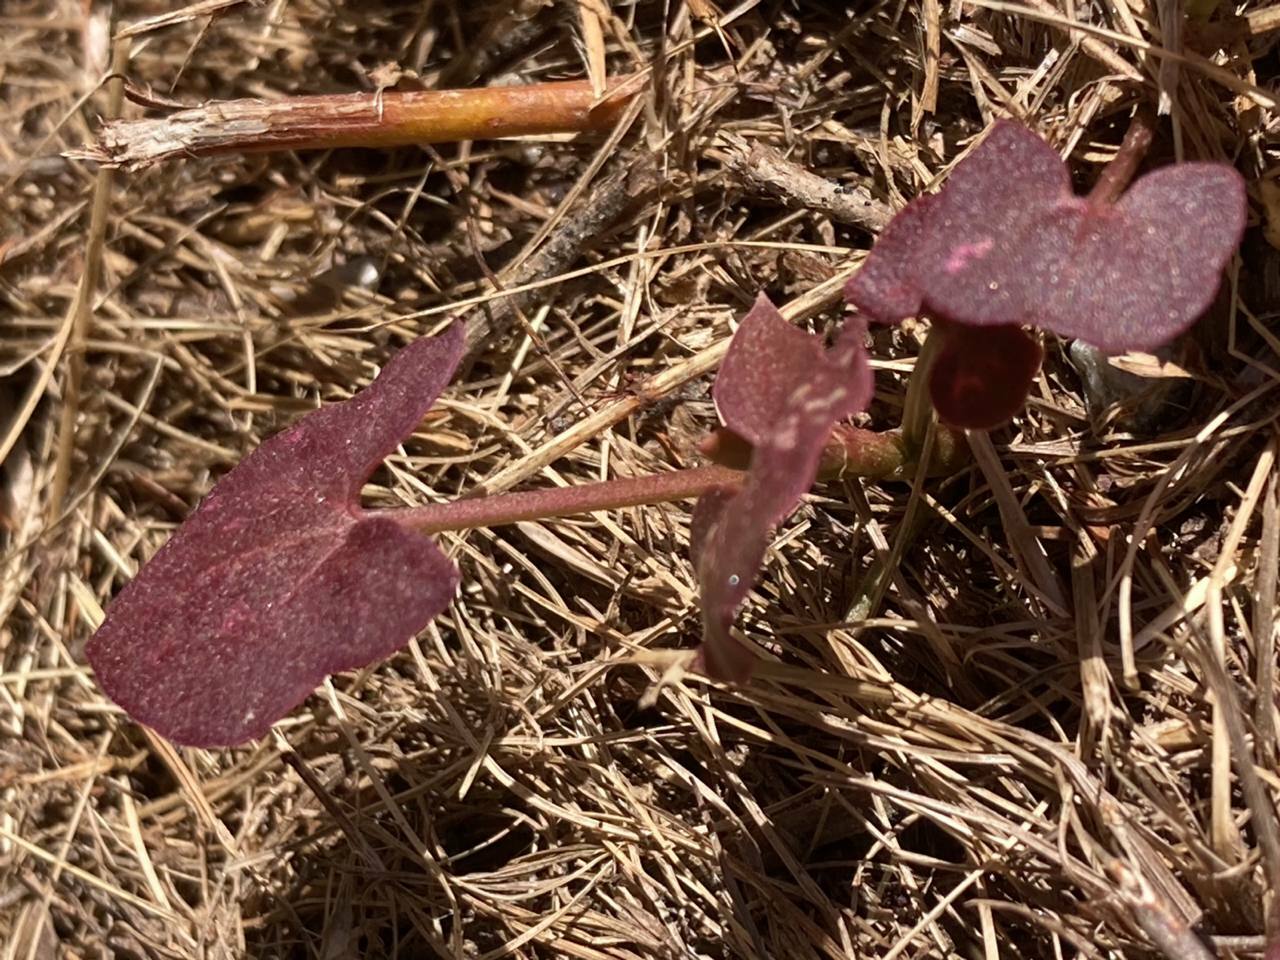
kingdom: Plantae
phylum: Tracheophyta
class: Magnoliopsida
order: Caryophyllales
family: Polygonaceae
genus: Rumex
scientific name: Rumex scutatus
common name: French sorrel
